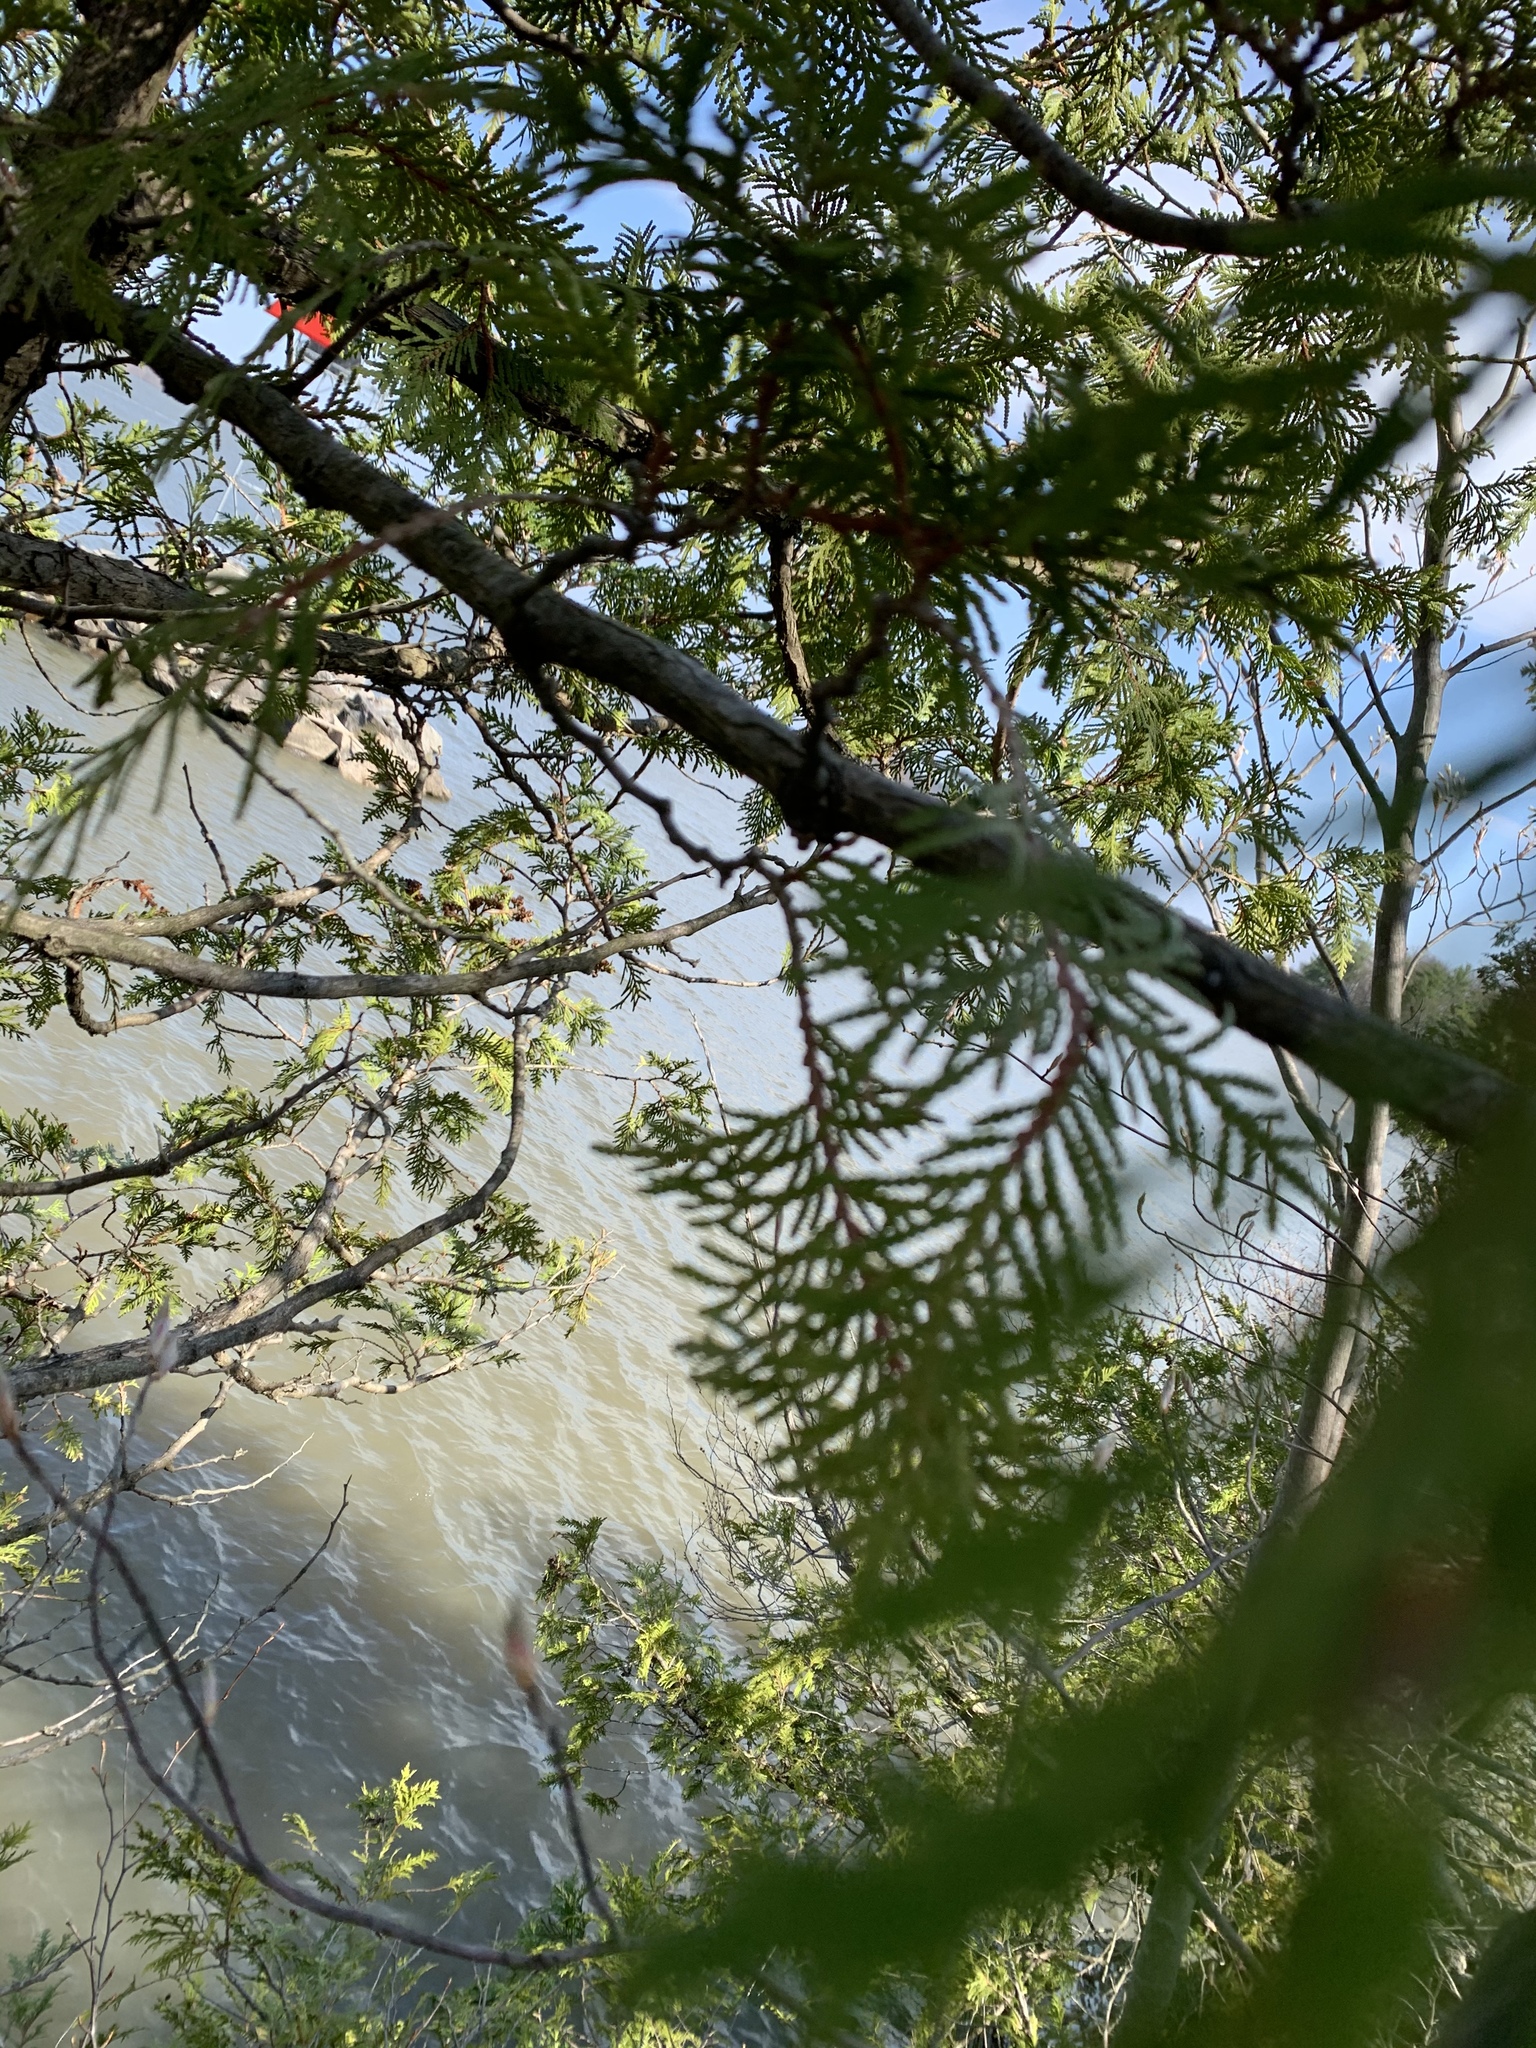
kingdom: Plantae
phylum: Tracheophyta
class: Pinopsida
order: Pinales
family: Cupressaceae
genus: Thuja
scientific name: Thuja occidentalis
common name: Northern white-cedar
